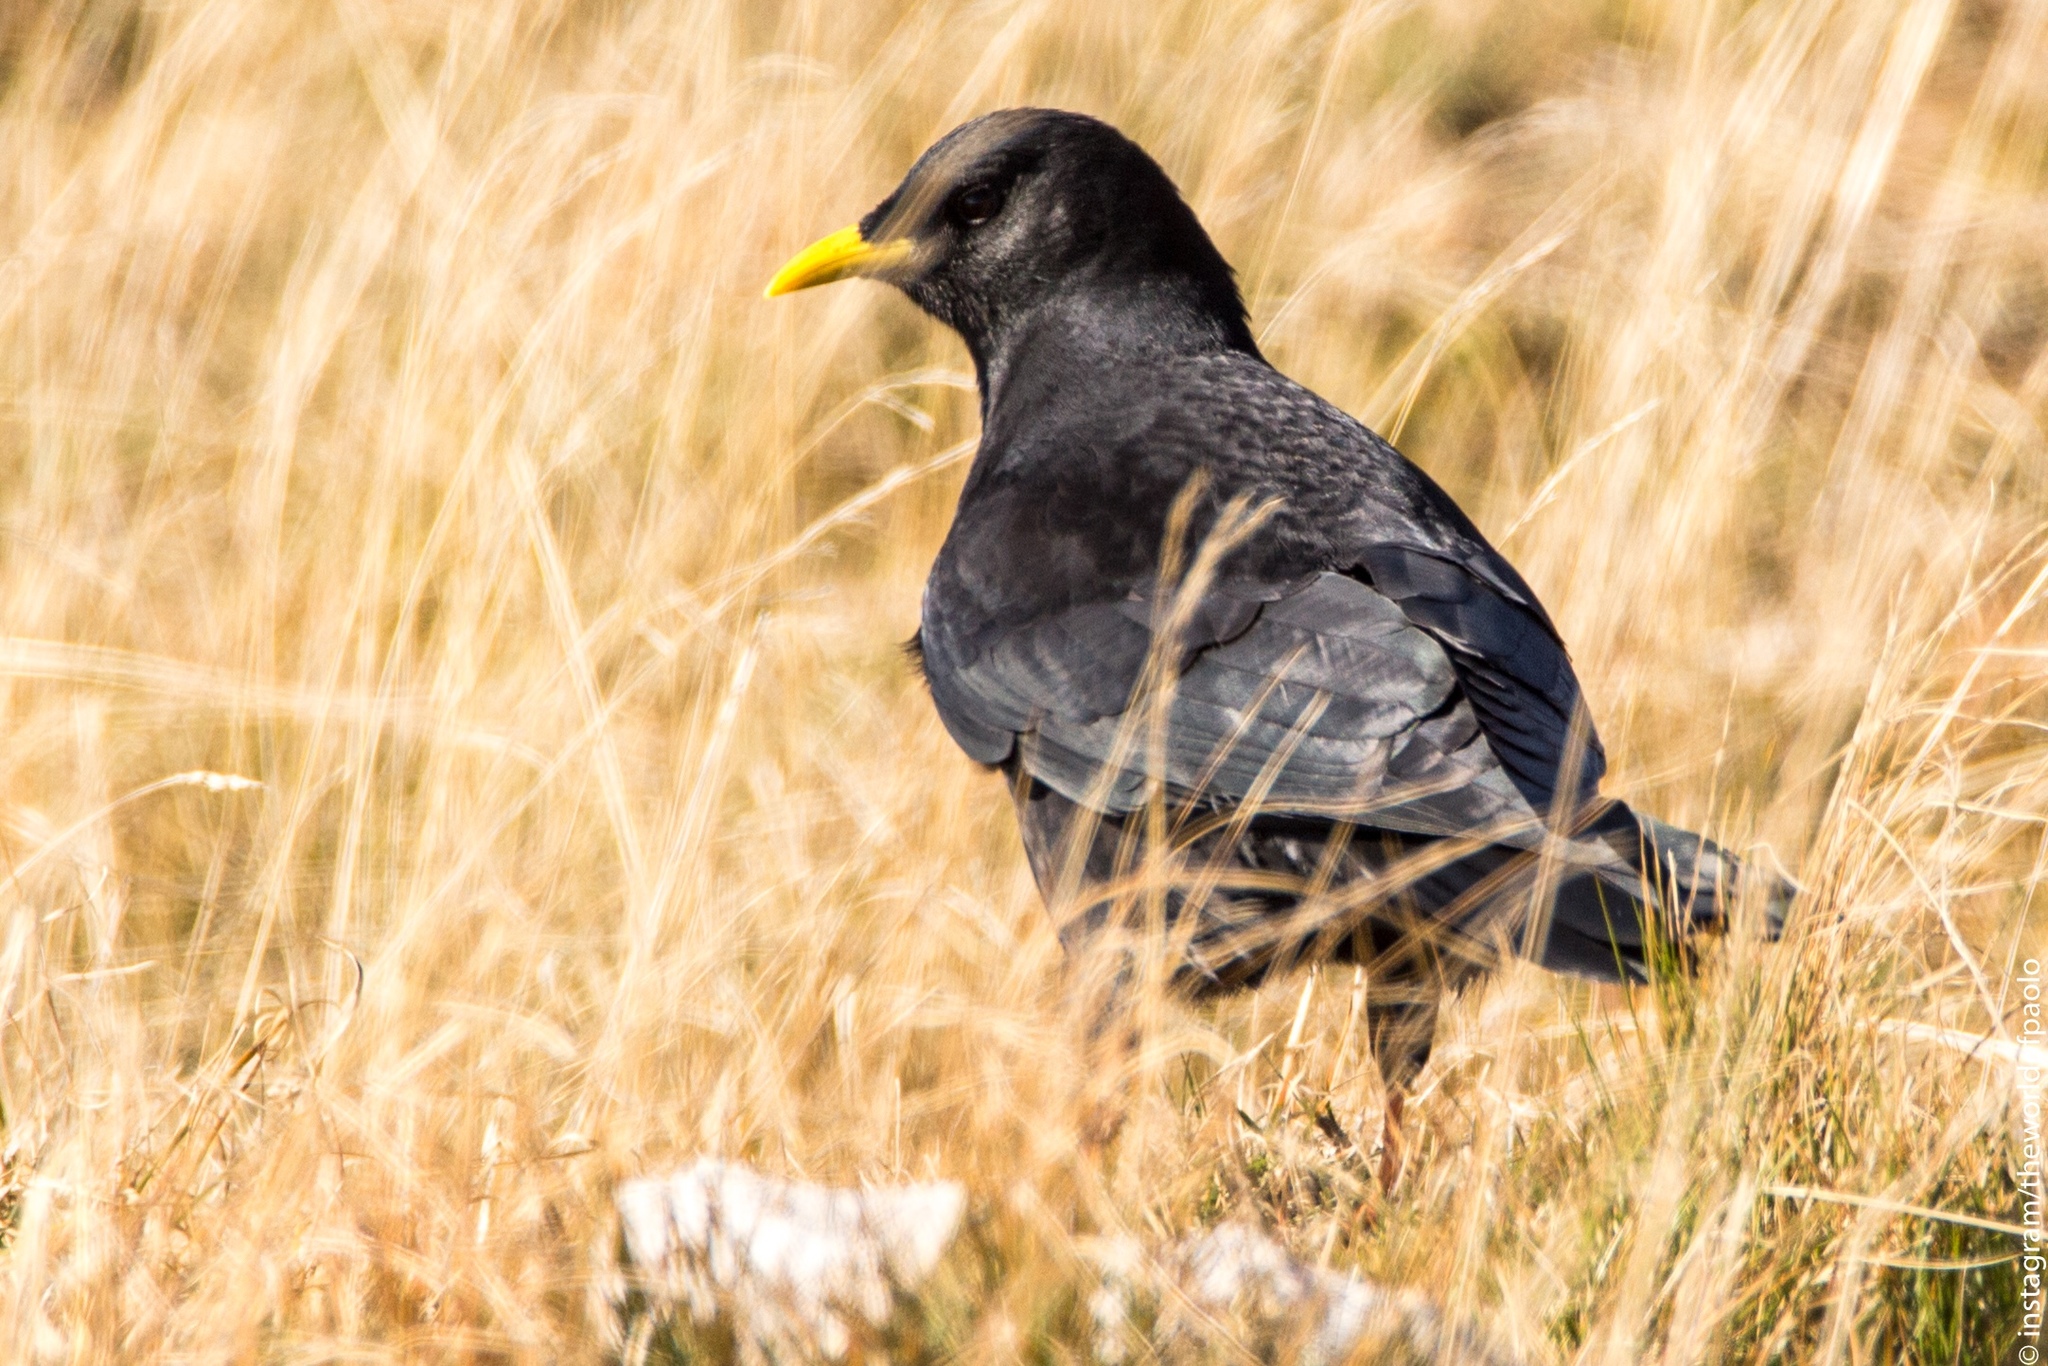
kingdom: Animalia
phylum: Chordata
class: Aves
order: Passeriformes
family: Corvidae
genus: Pyrrhocorax
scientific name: Pyrrhocorax graculus
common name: Alpine chough
